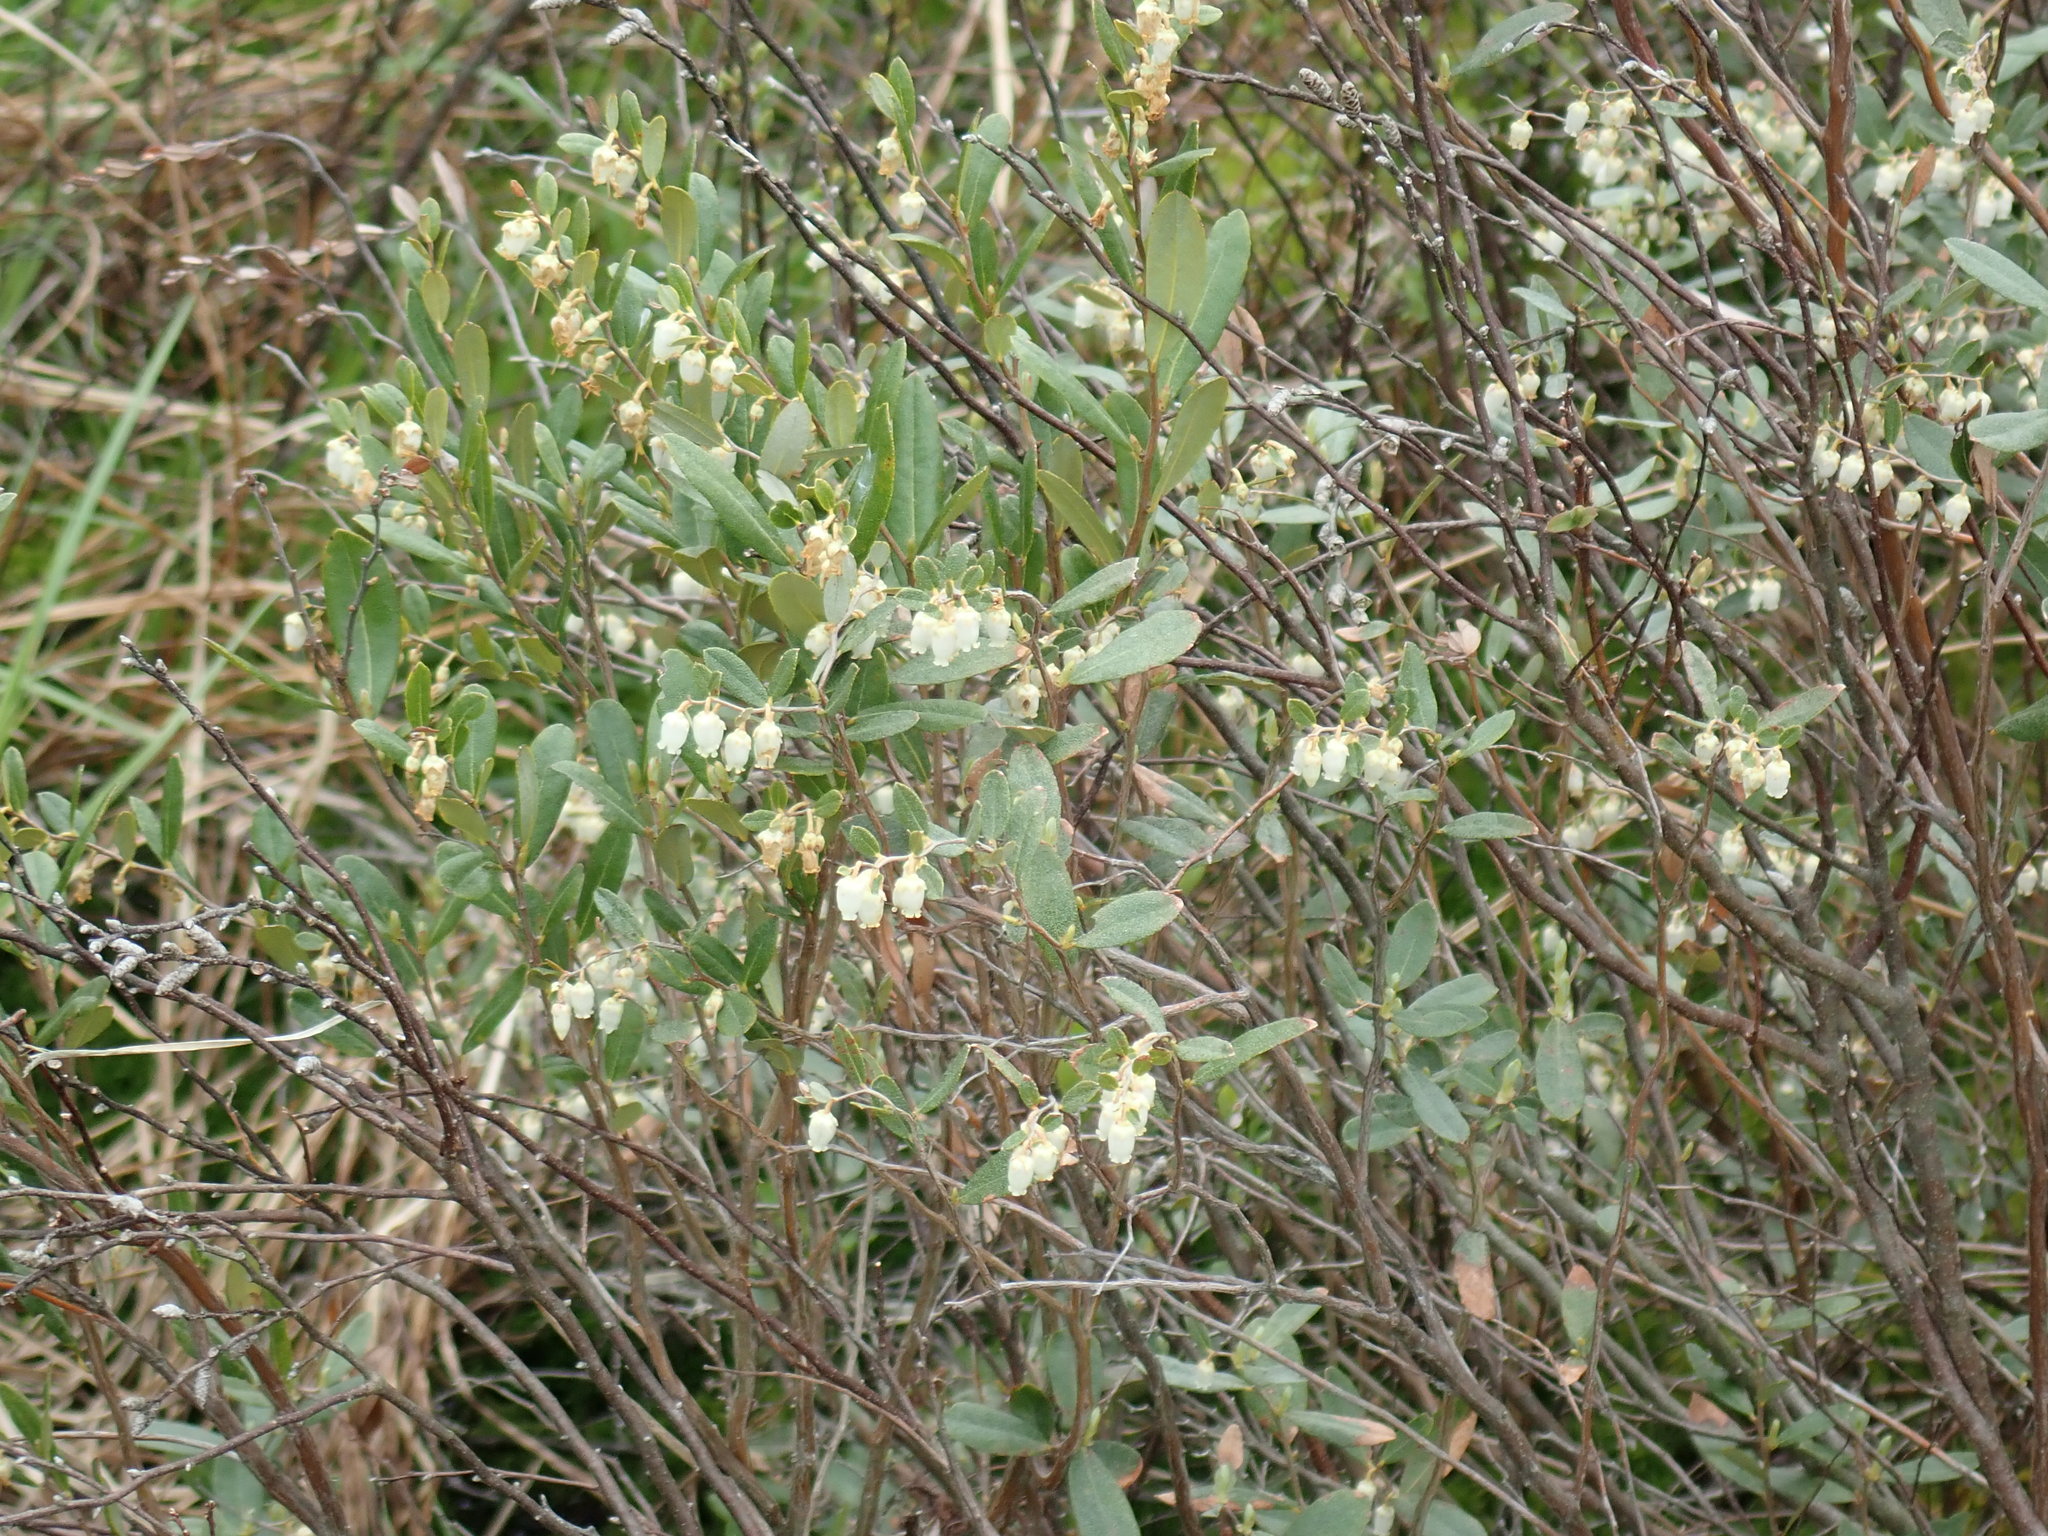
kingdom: Plantae
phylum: Tracheophyta
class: Magnoliopsida
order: Ericales
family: Ericaceae
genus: Chamaedaphne
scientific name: Chamaedaphne calyculata
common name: Leatherleaf
